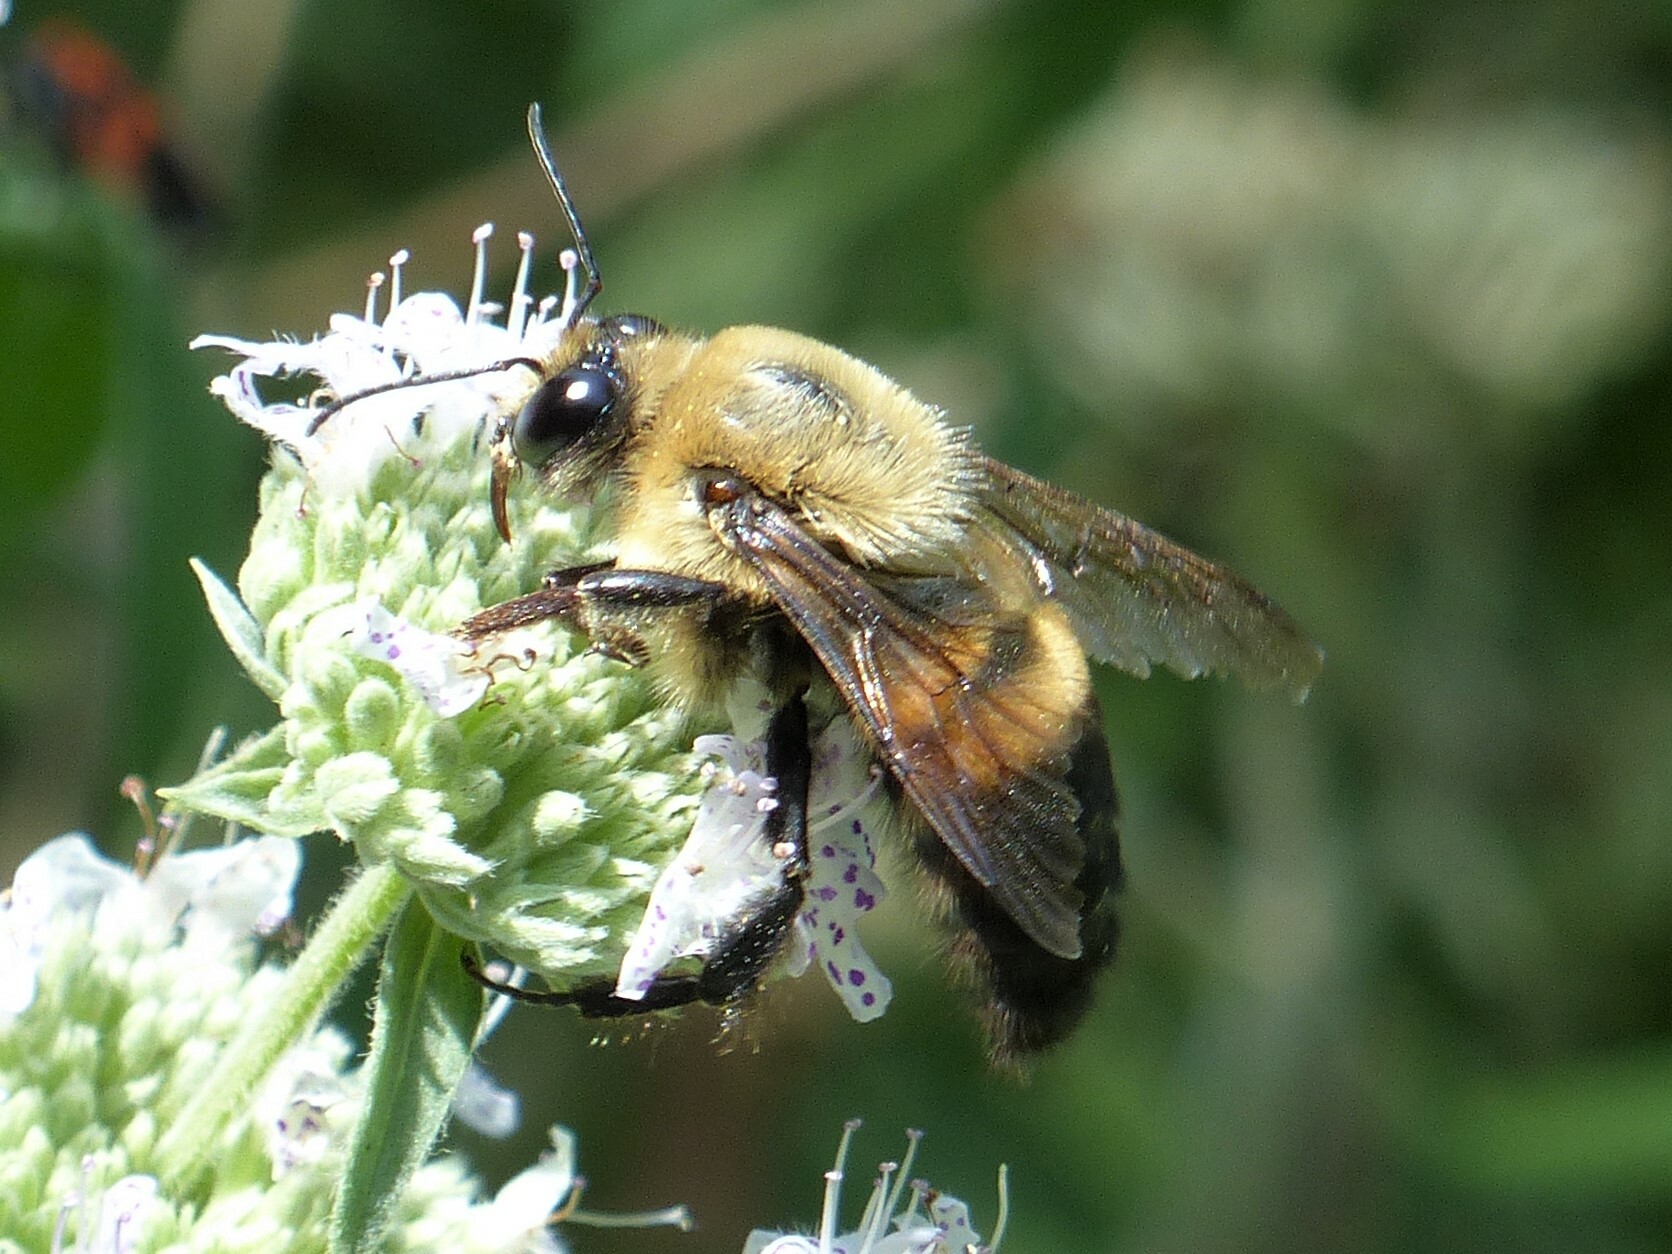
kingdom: Animalia
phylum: Arthropoda
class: Insecta
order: Hymenoptera
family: Apidae
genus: Bombus
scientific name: Bombus griseocollis
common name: Brown-belted bumble bee
